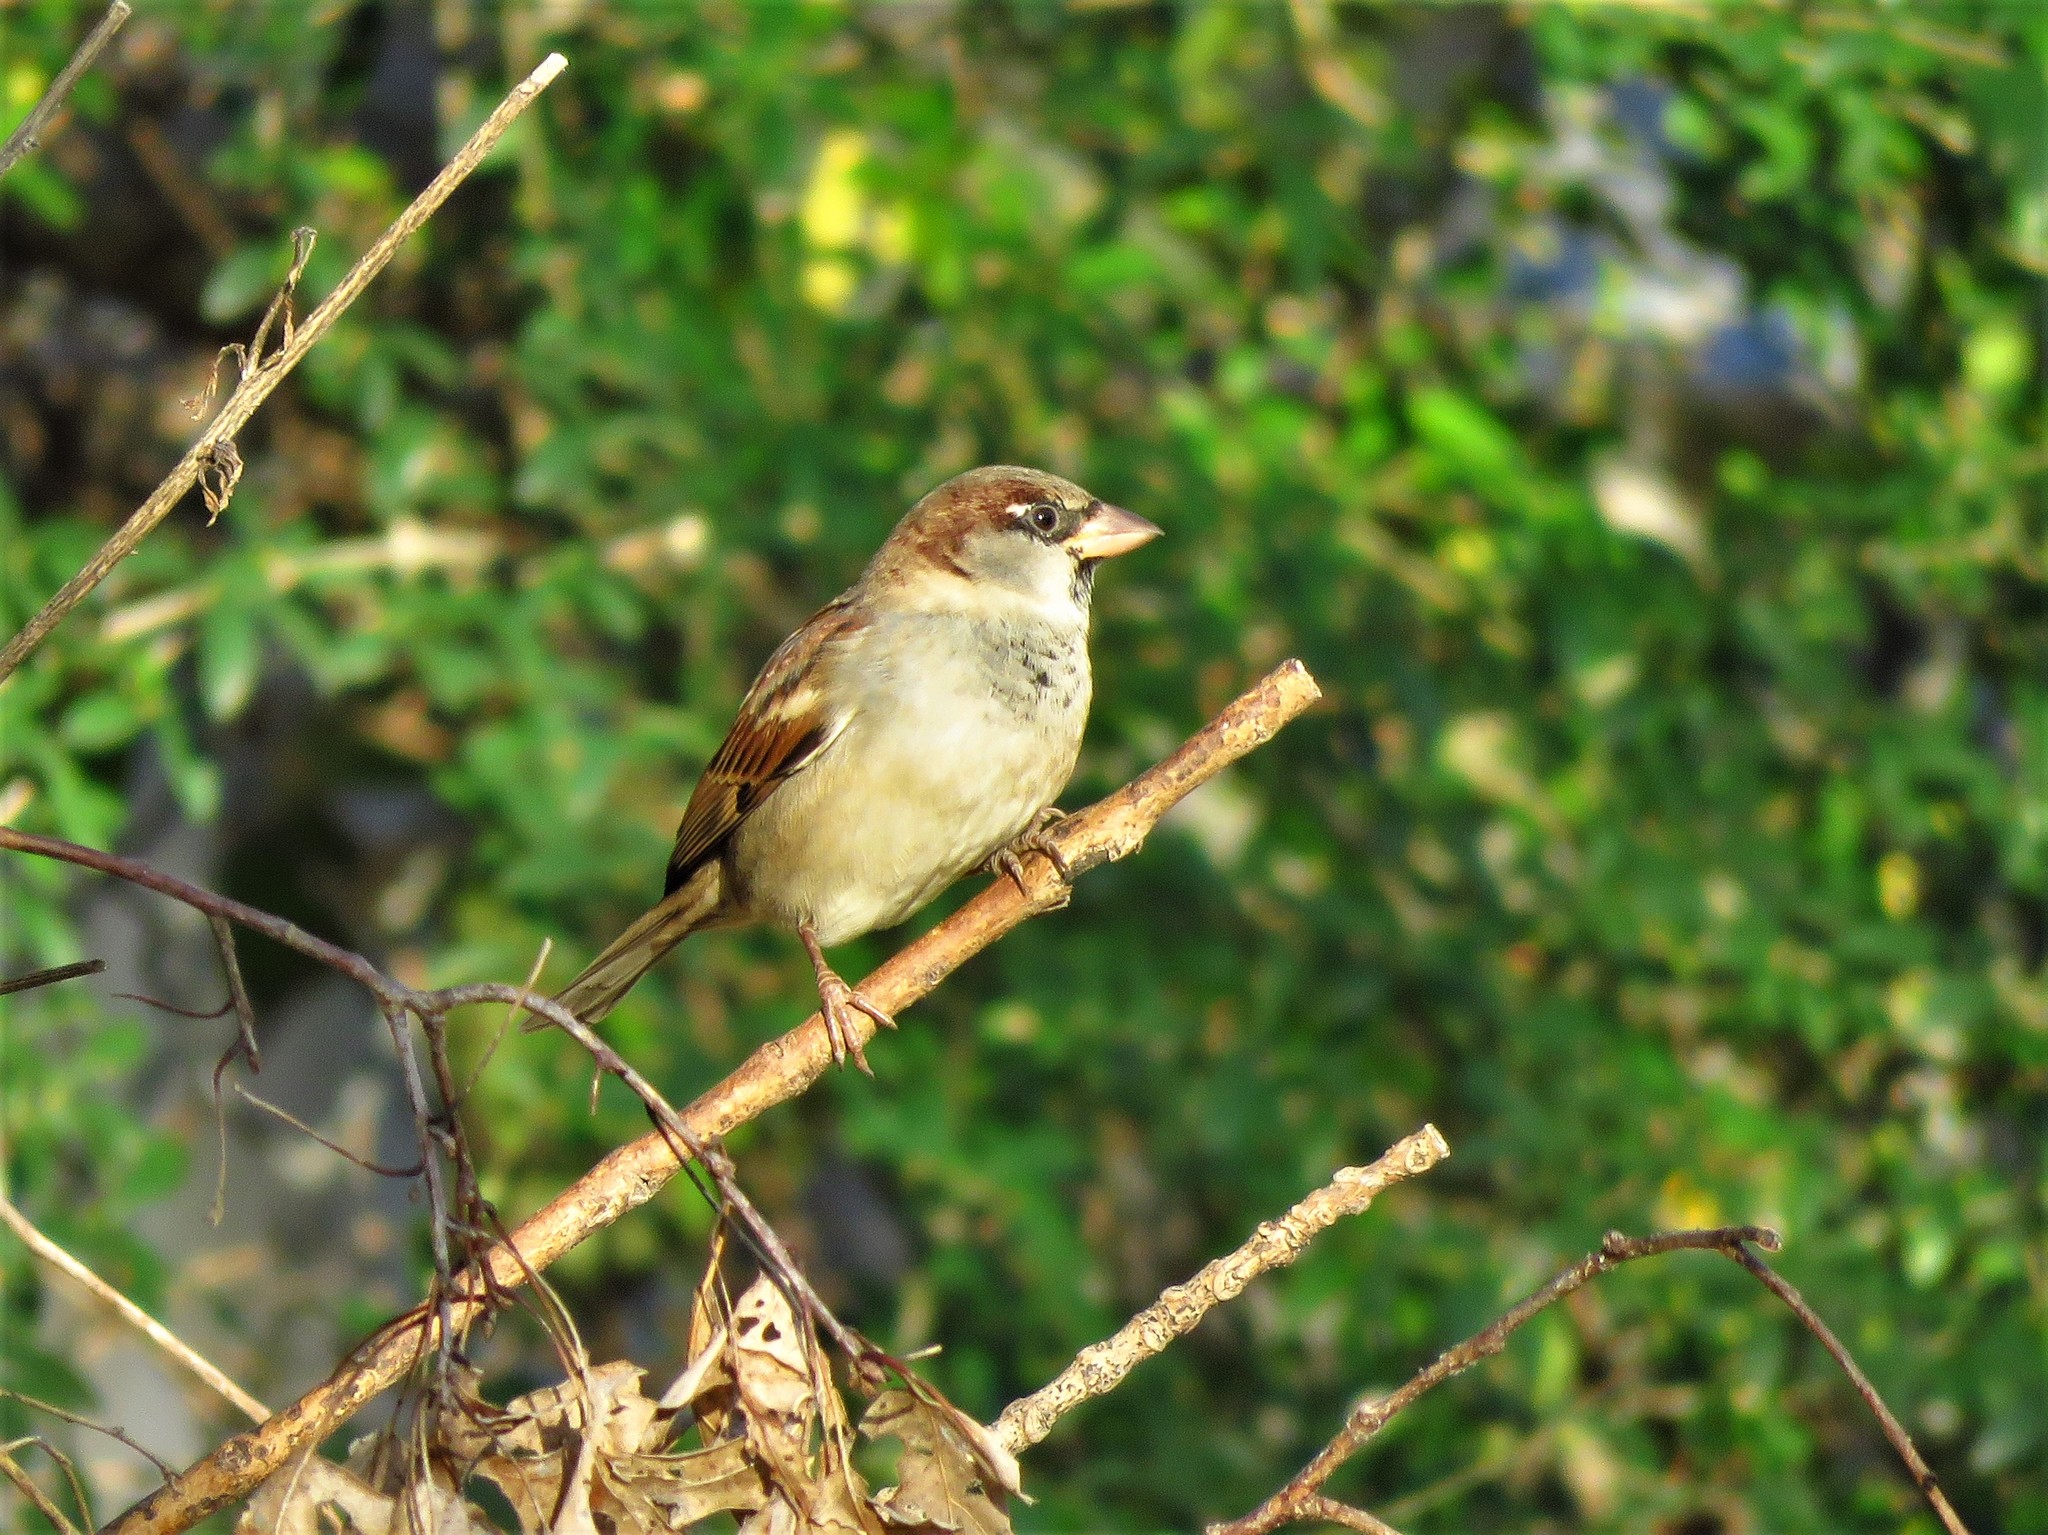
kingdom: Animalia
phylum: Chordata
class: Aves
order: Passeriformes
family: Passeridae
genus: Passer
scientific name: Passer domesticus
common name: House sparrow
